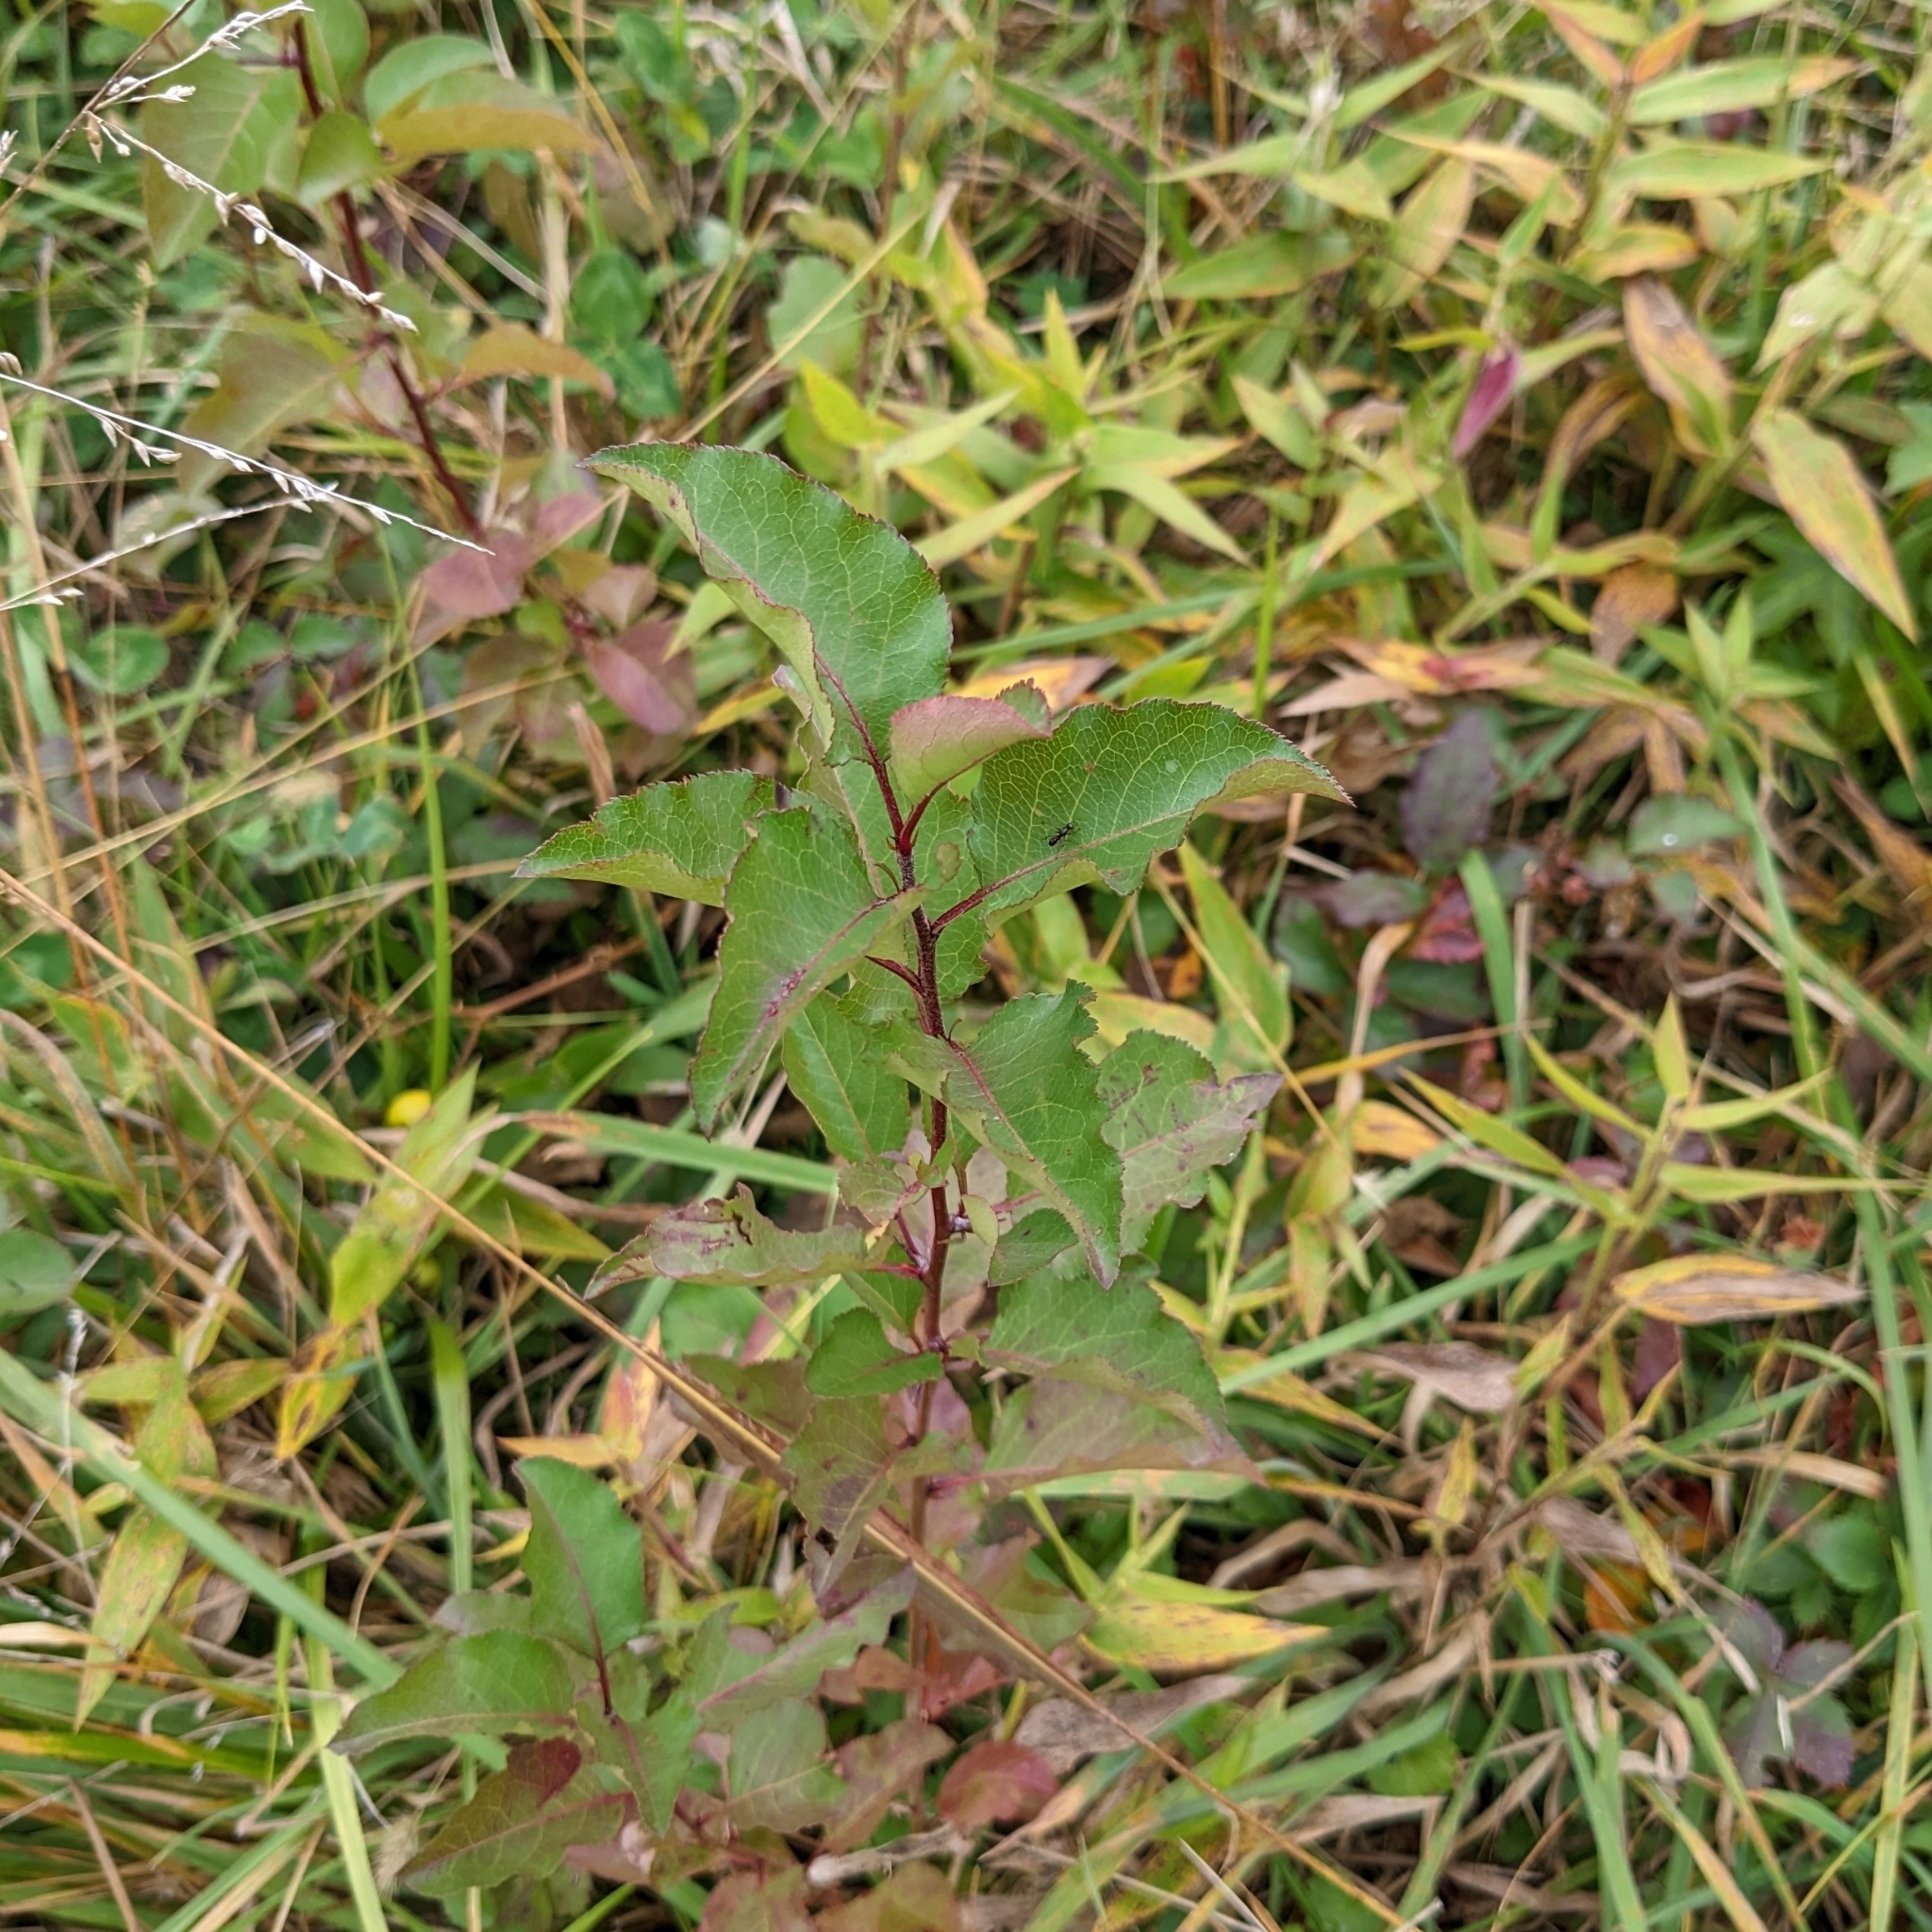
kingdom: Plantae
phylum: Tracheophyta
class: Magnoliopsida
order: Rosales
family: Rosaceae
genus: Pyrus
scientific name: Pyrus calleryana
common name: Callery pear
